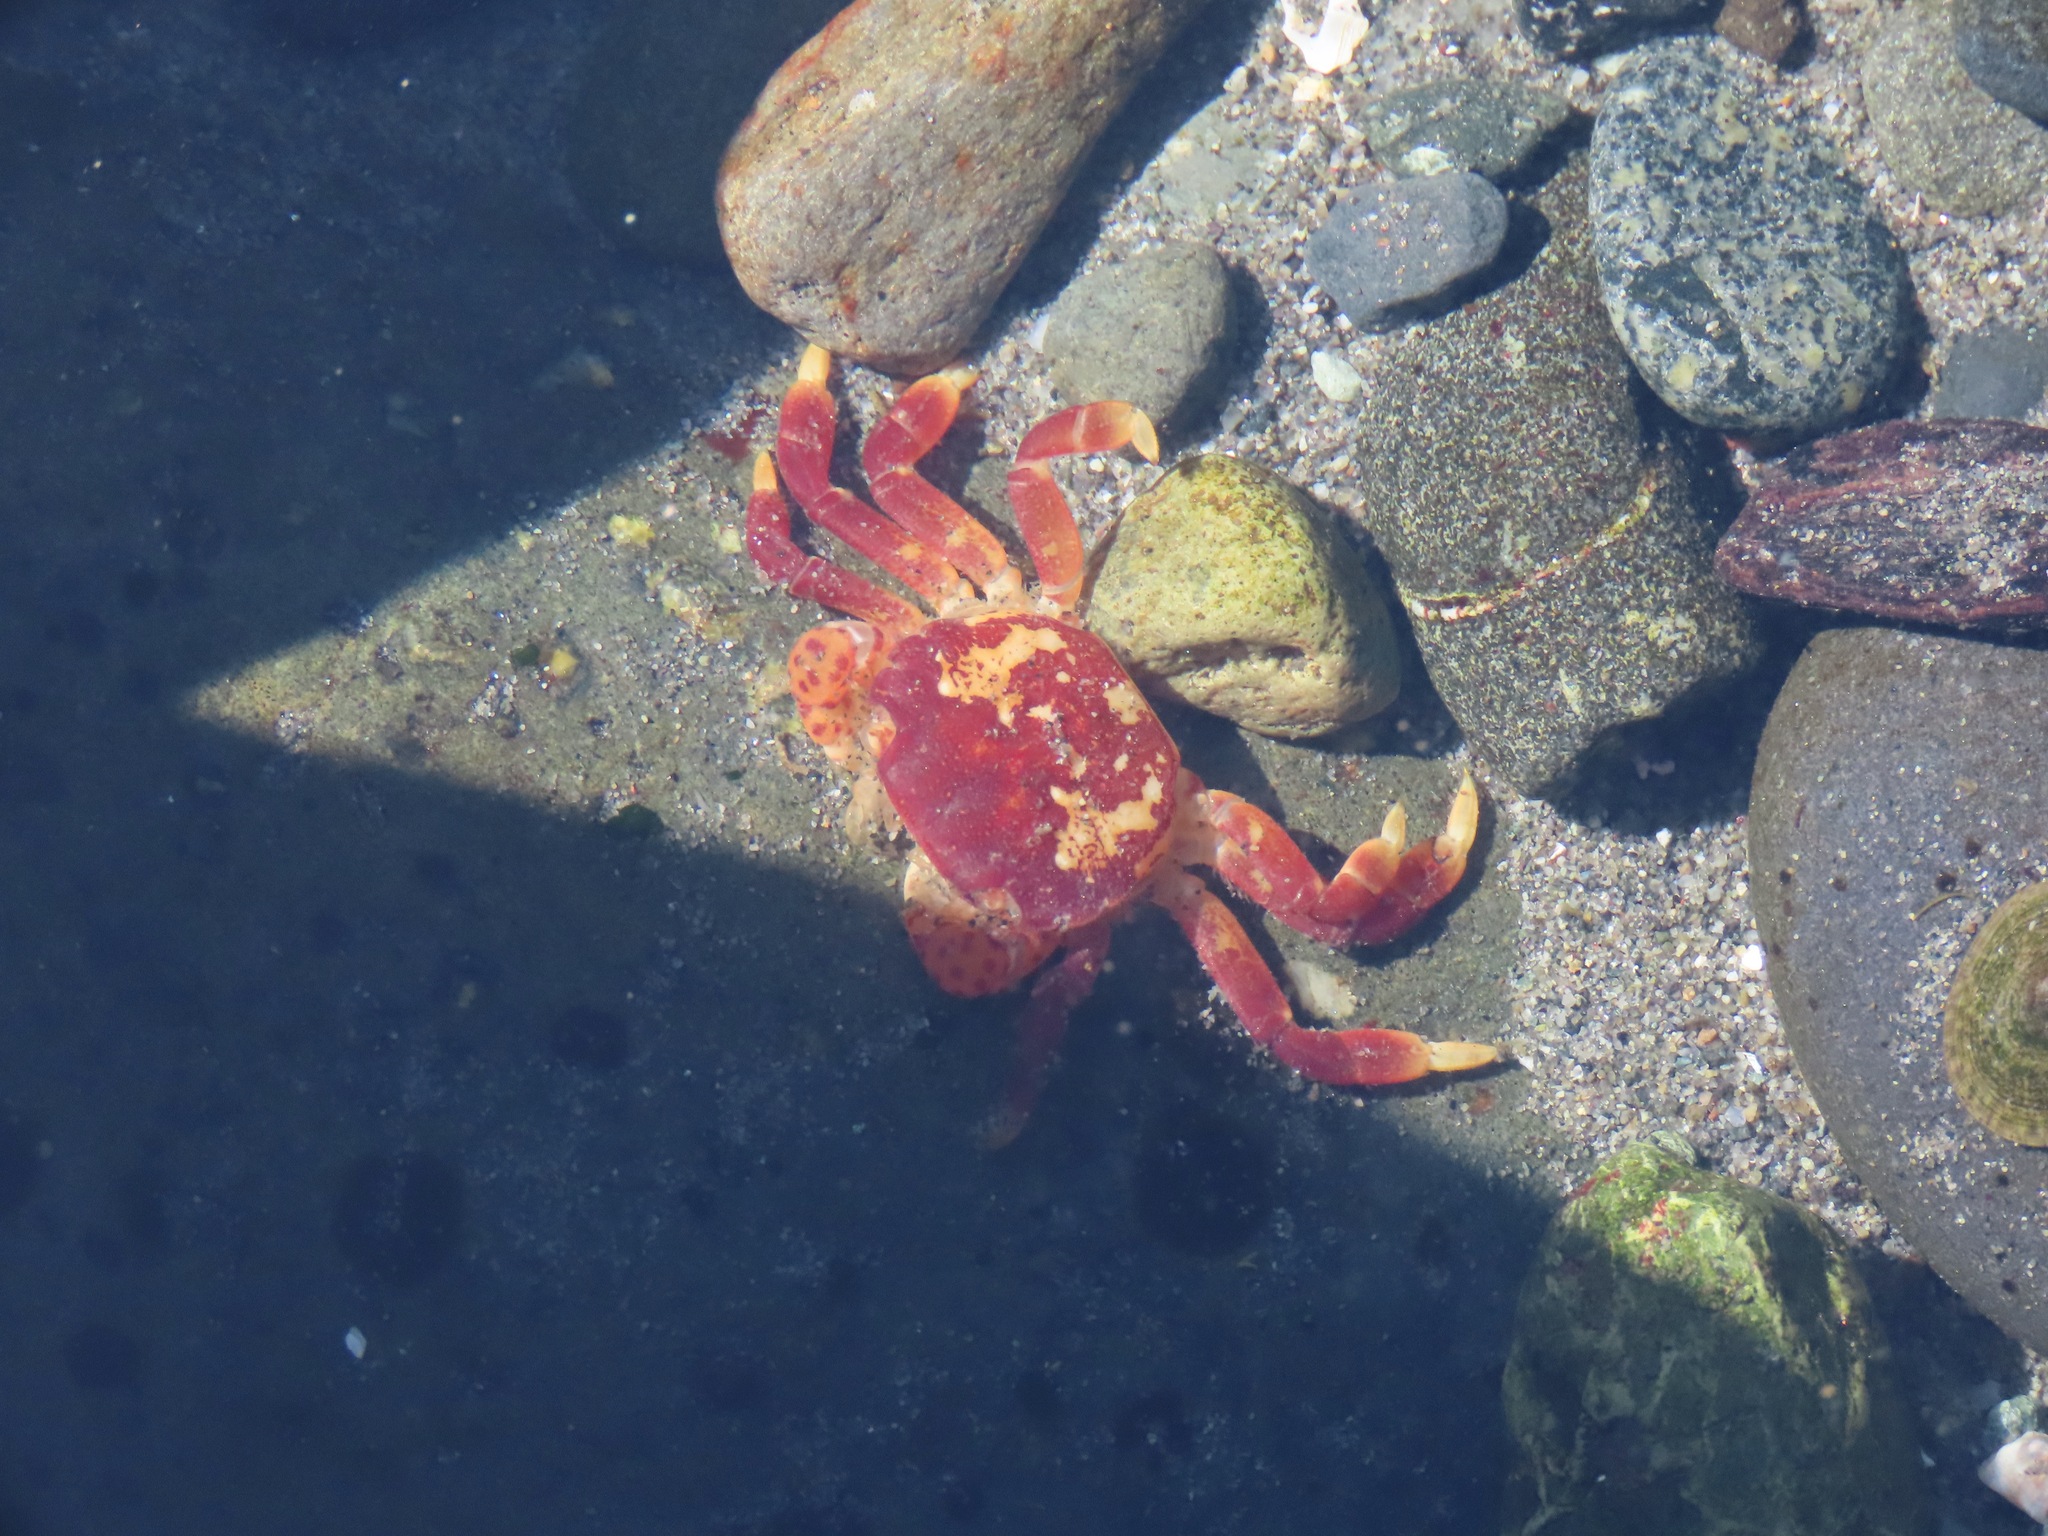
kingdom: Animalia
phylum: Arthropoda
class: Malacostraca
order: Decapoda
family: Varunidae
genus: Hemigrapsus
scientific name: Hemigrapsus nudus
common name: Purple shore crab
